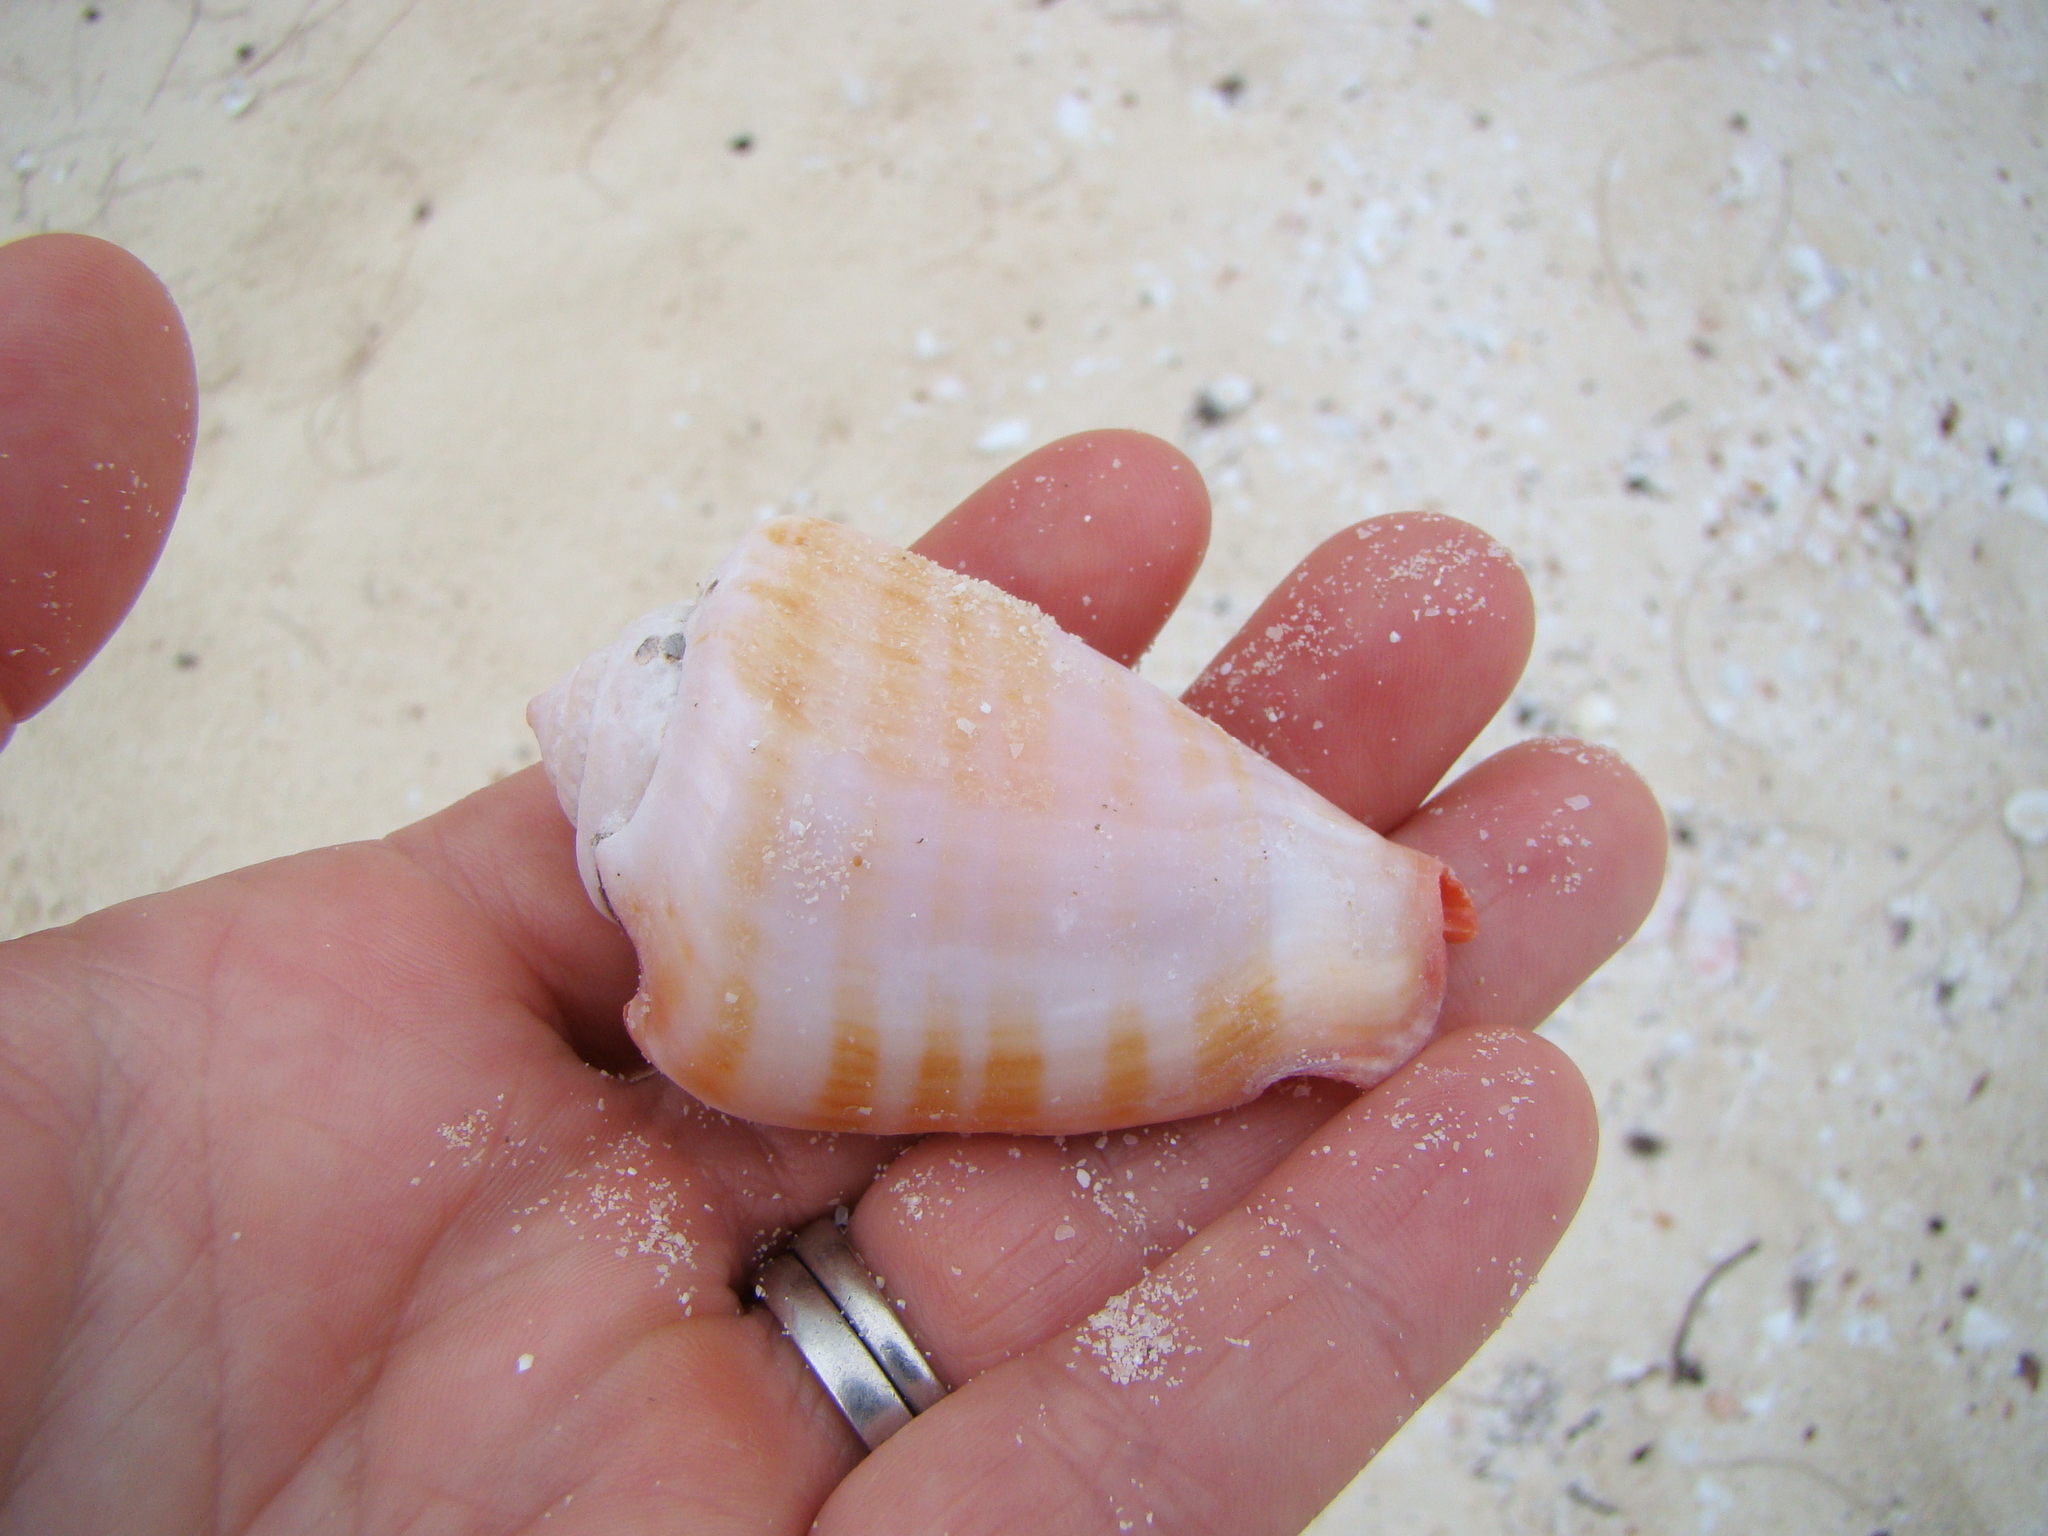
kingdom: Animalia
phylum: Mollusca
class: Gastropoda
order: Littorinimorpha
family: Strombidae
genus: Conomurex
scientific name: Conomurex luhuanus
